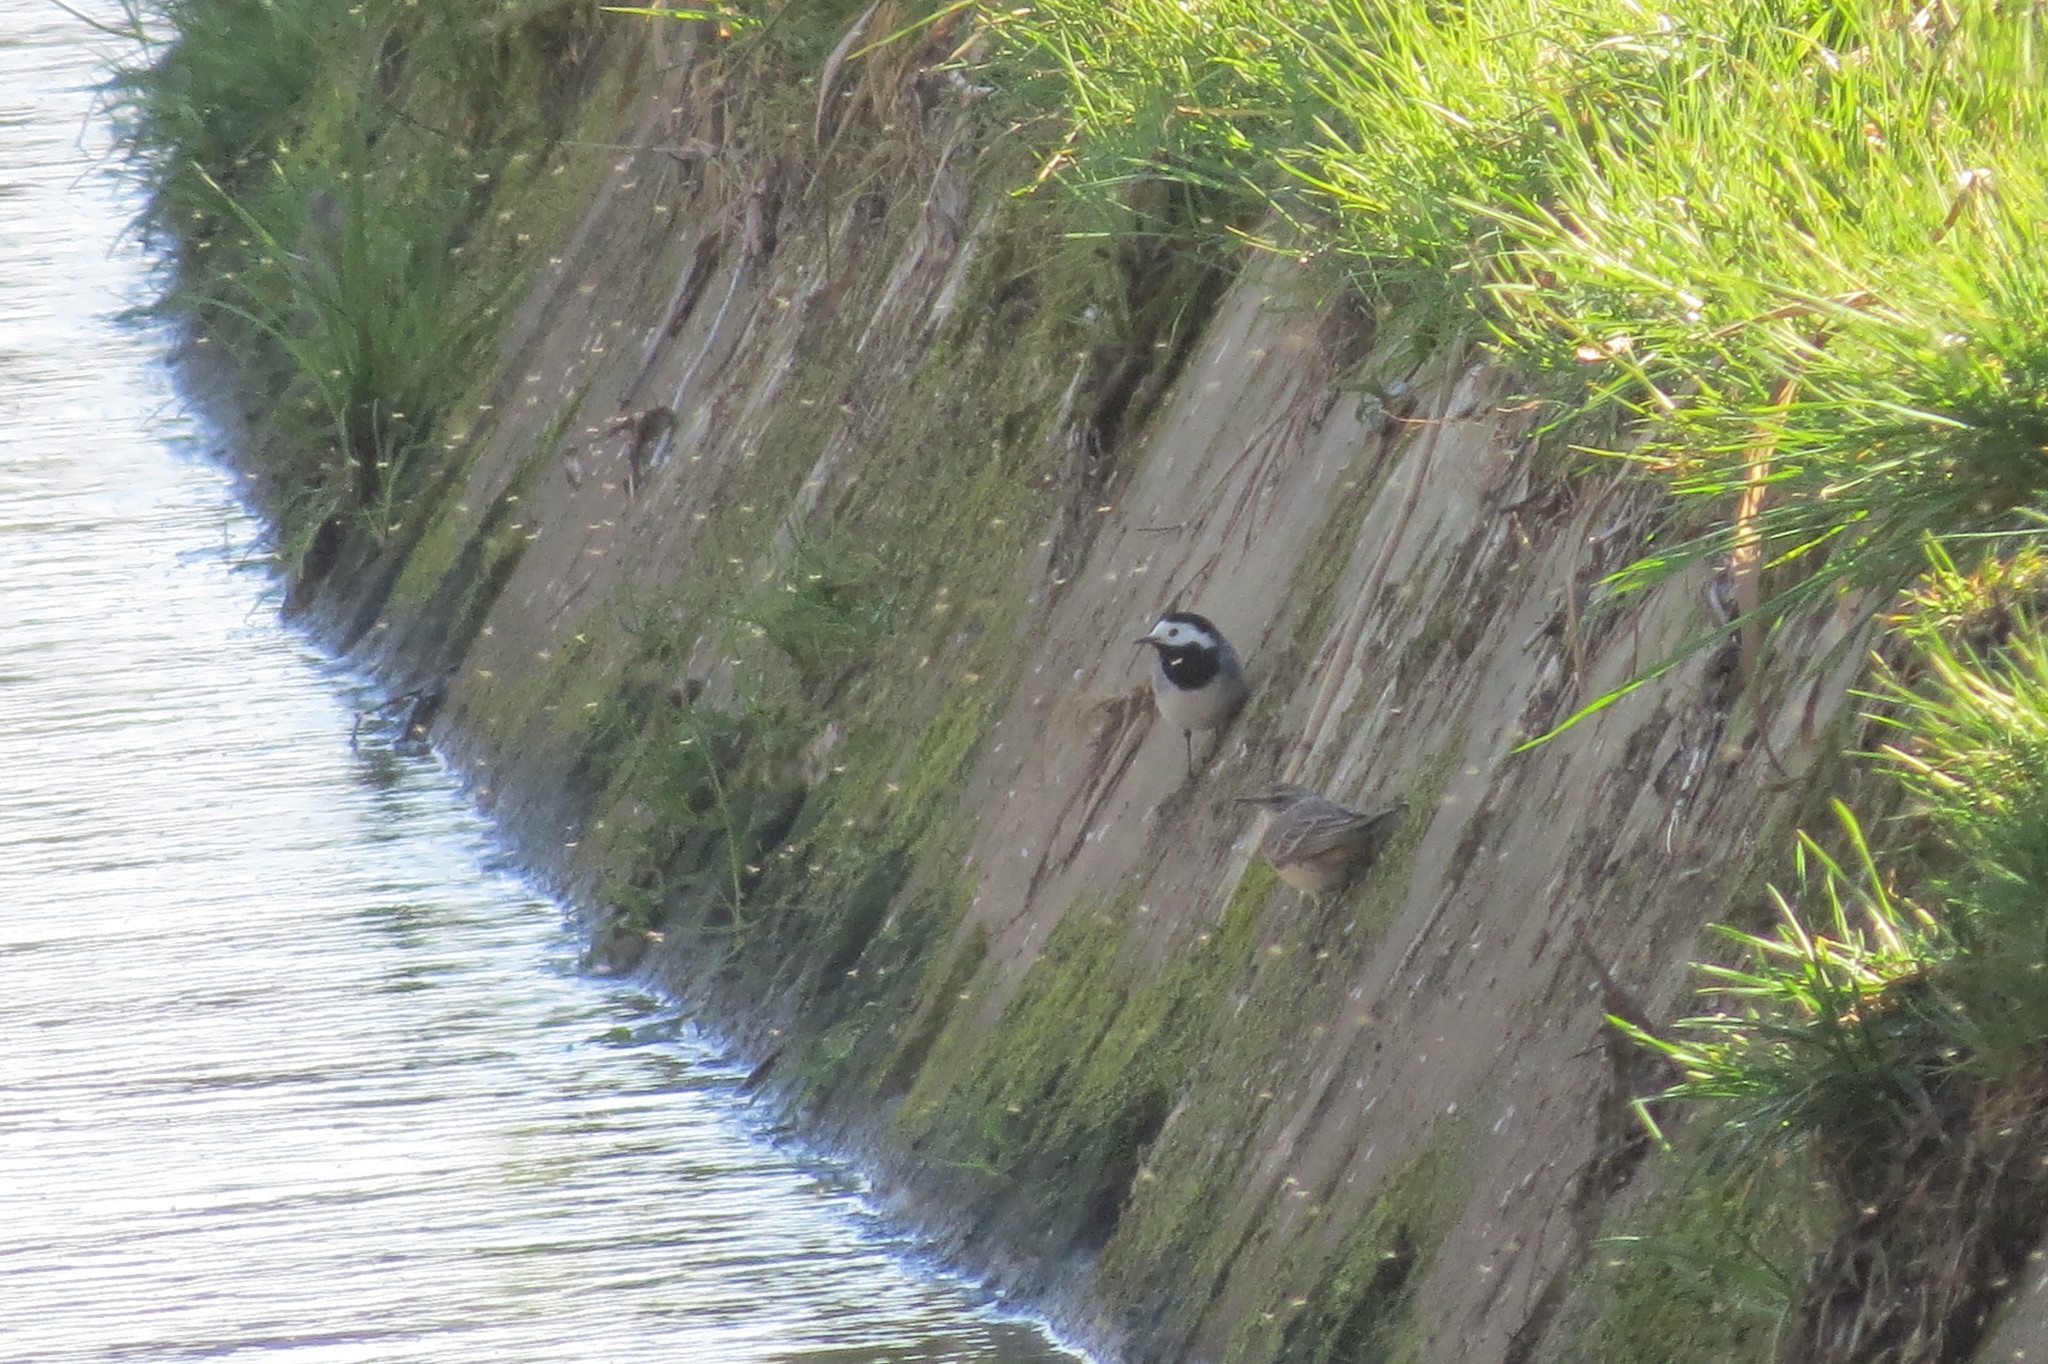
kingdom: Animalia
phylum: Chordata
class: Aves
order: Passeriformes
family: Motacillidae
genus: Motacilla
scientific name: Motacilla alba
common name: White wagtail
